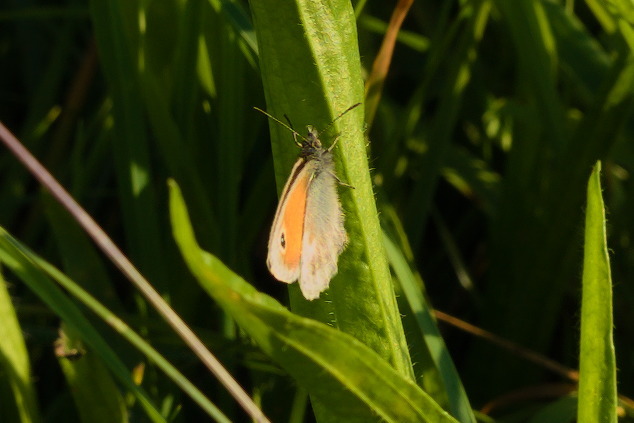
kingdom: Animalia
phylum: Arthropoda
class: Insecta
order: Lepidoptera
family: Nymphalidae
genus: Coenonympha
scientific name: Coenonympha pamphilus
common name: Small heath
